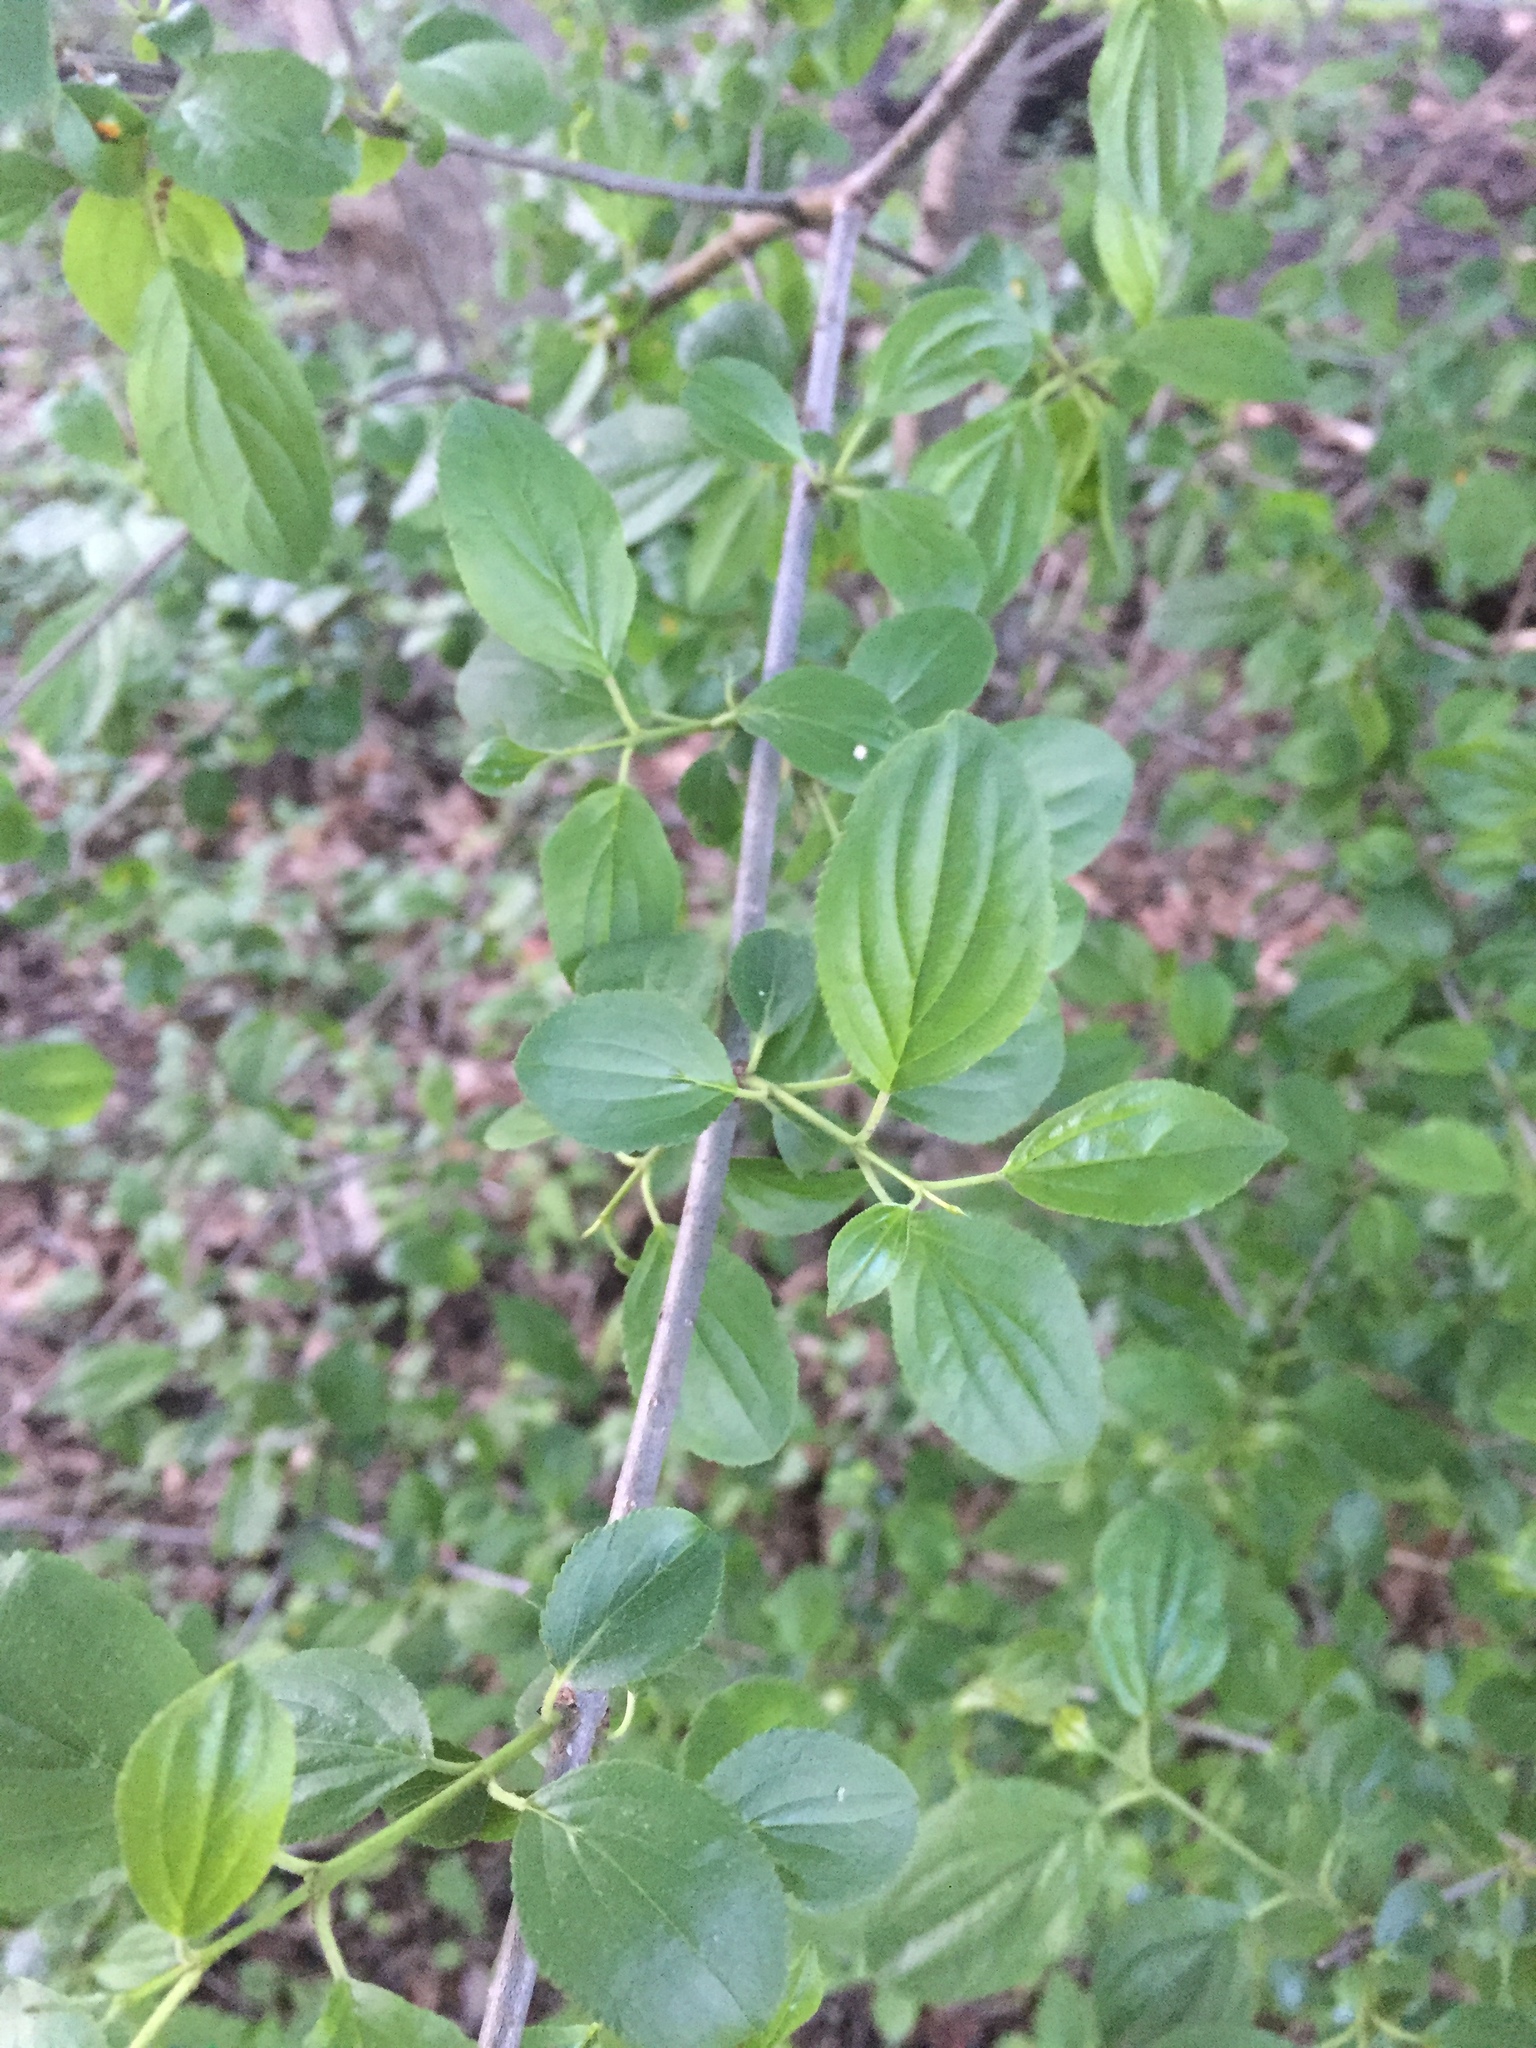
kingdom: Plantae
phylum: Tracheophyta
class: Magnoliopsida
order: Rosales
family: Rhamnaceae
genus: Rhamnus
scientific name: Rhamnus cathartica
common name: Common buckthorn
